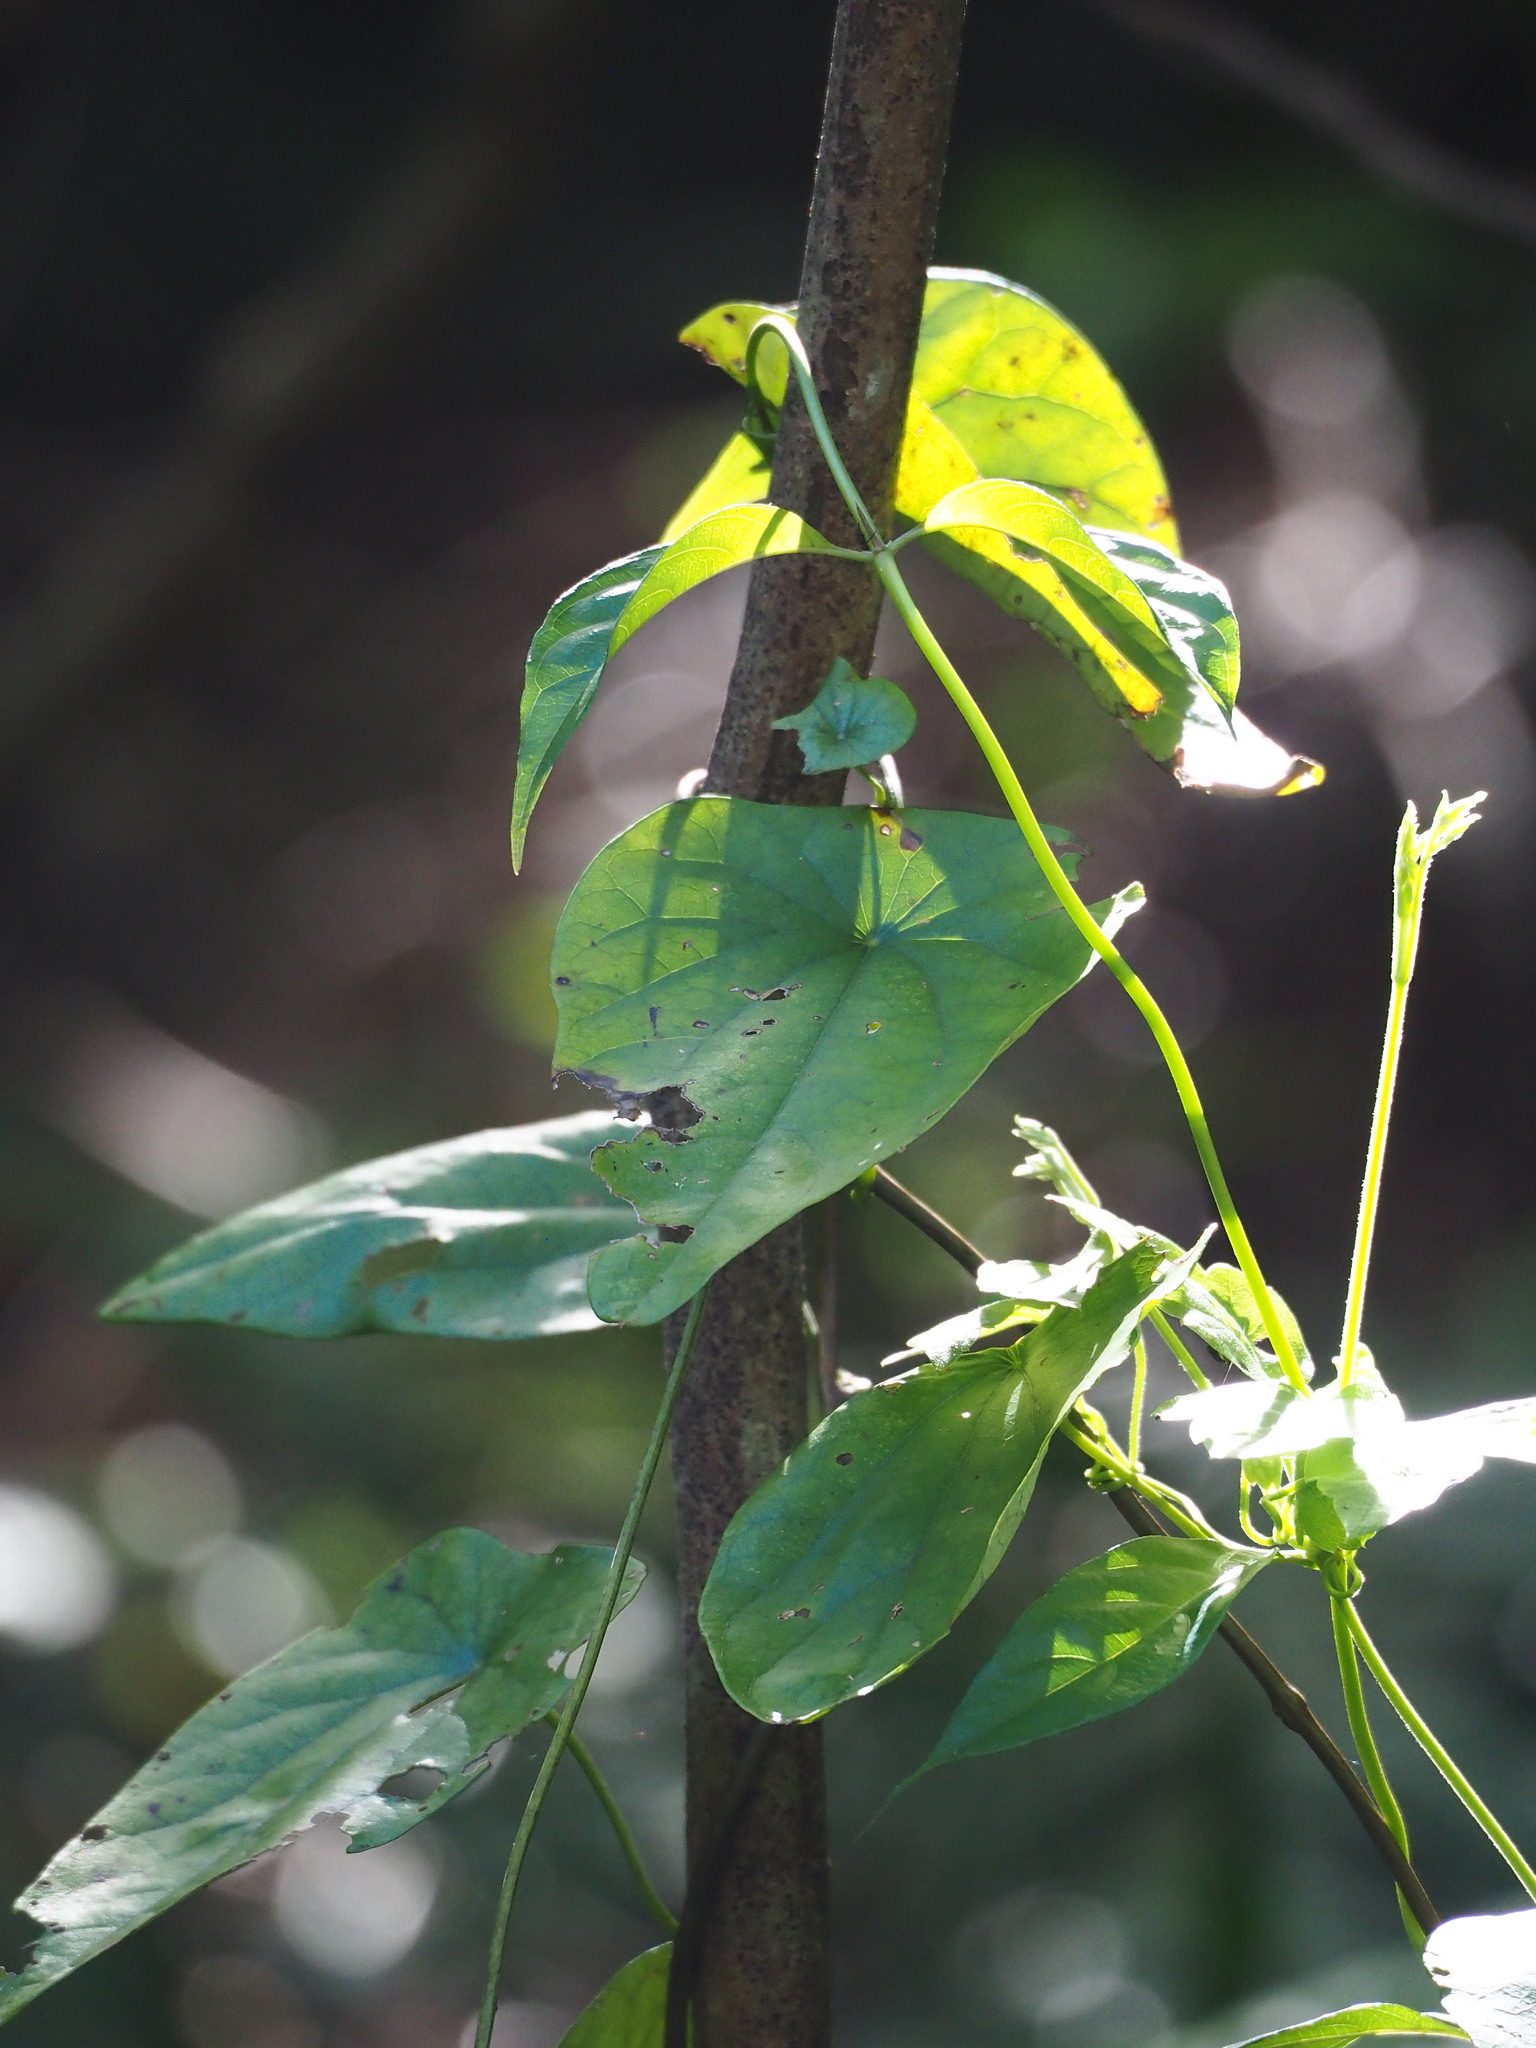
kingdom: Plantae
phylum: Tracheophyta
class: Magnoliopsida
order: Ranunculales
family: Menispermaceae
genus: Stephania
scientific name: Stephania longa
